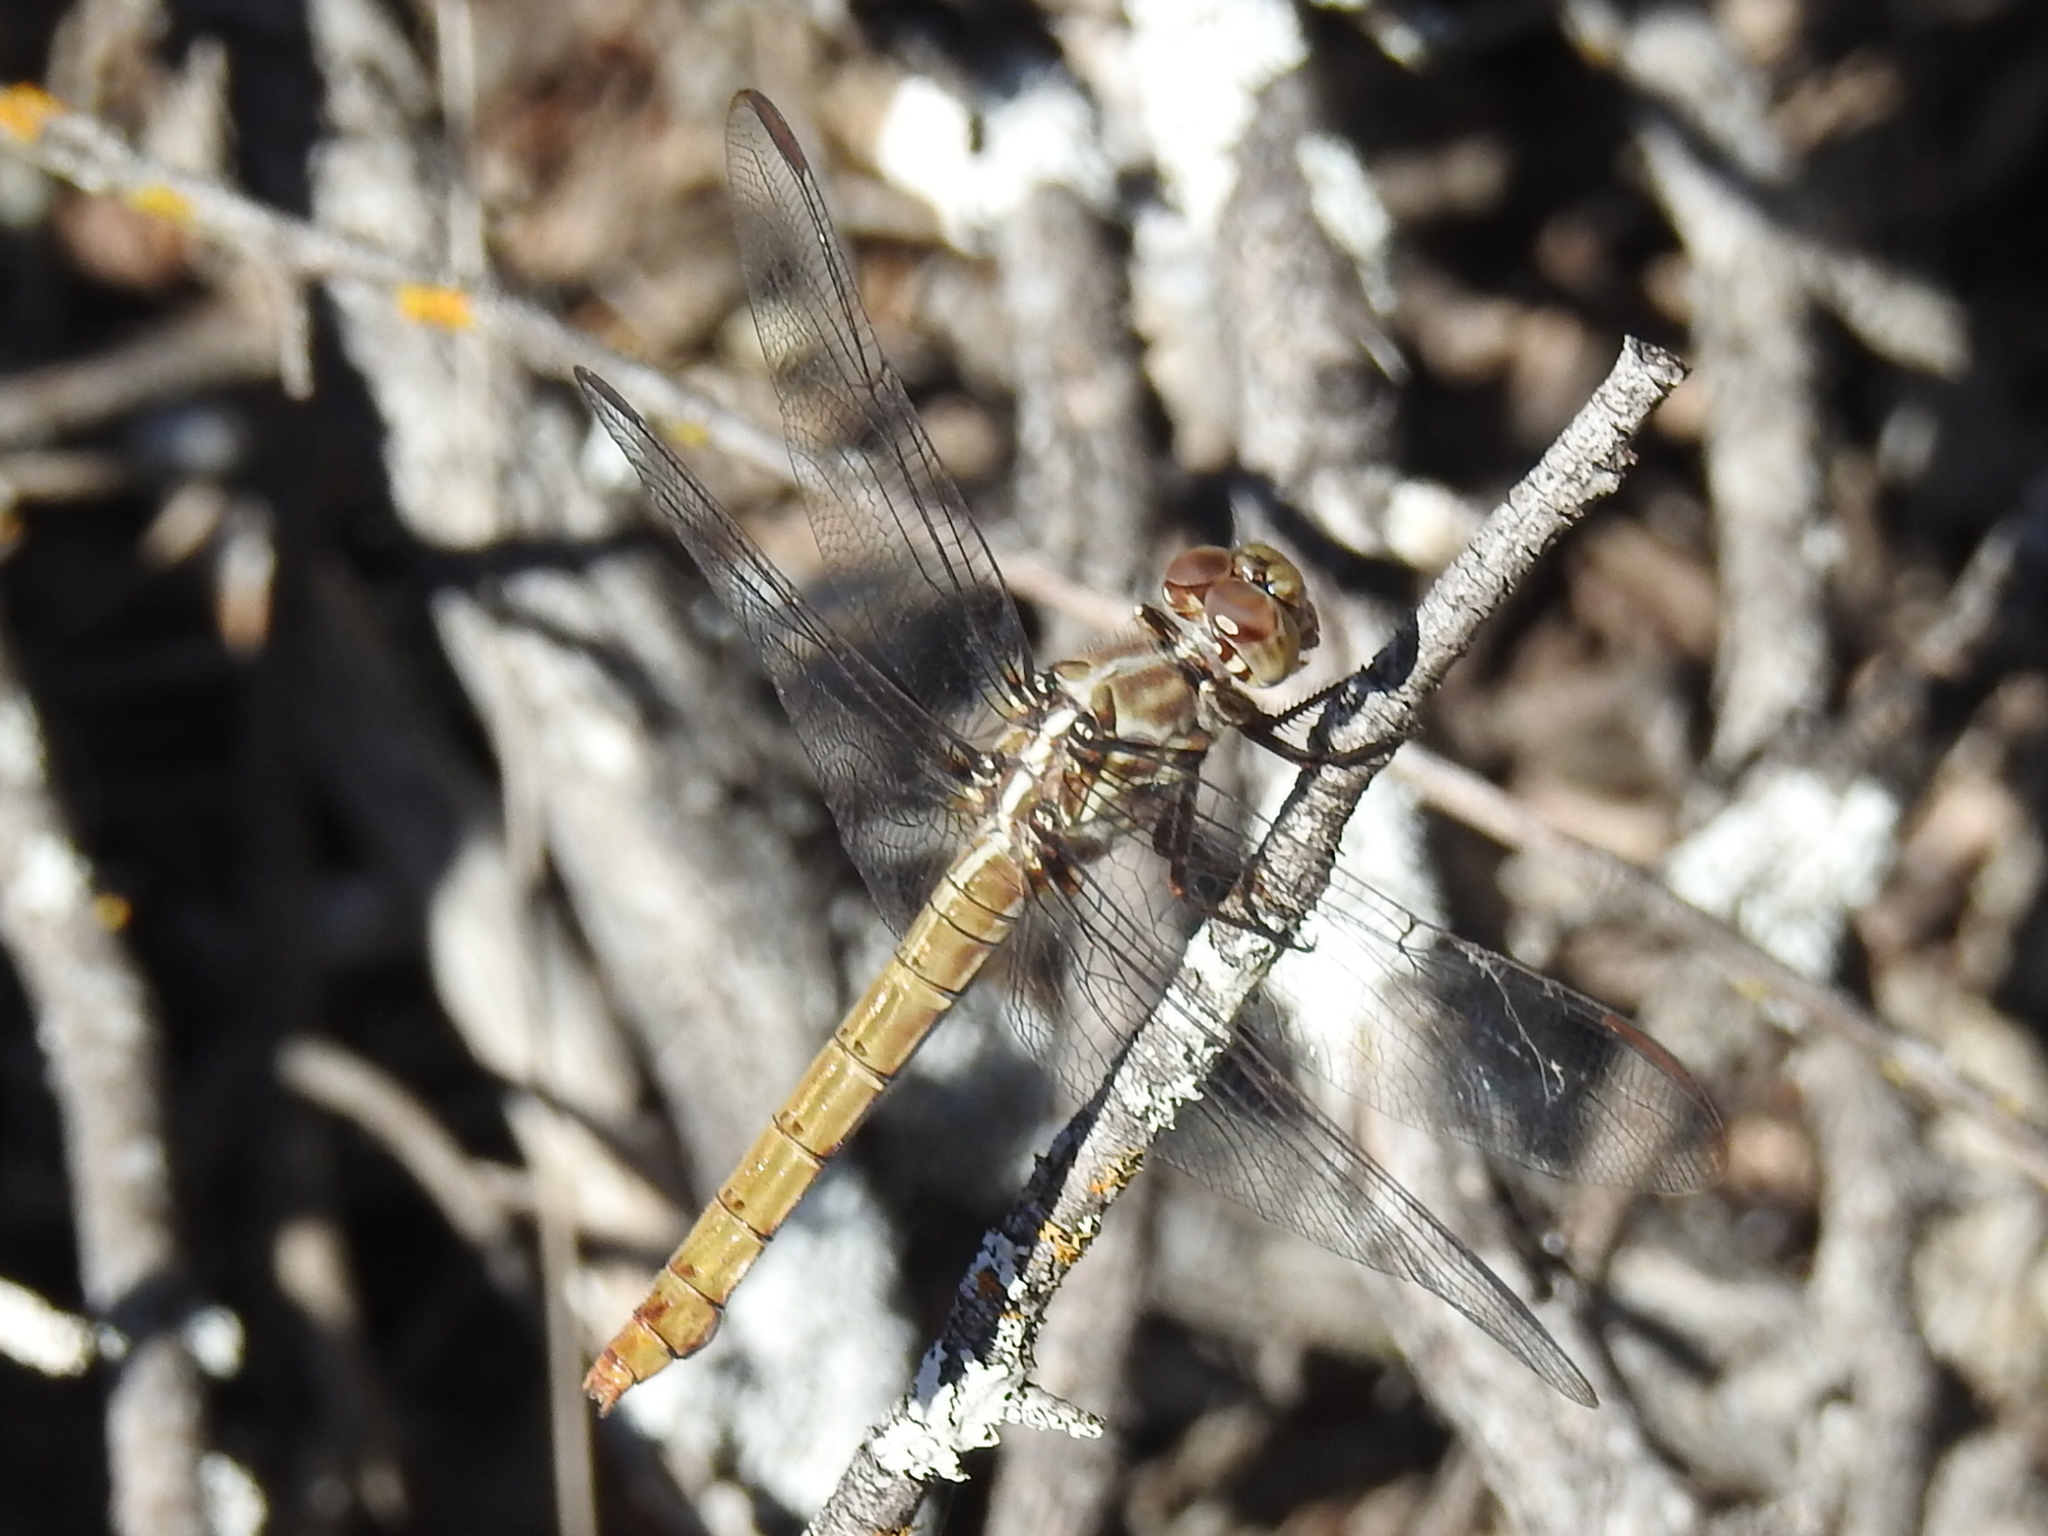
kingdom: Animalia
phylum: Arthropoda
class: Insecta
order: Odonata
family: Libellulidae
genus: Orthemis
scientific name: Orthemis ferruginea
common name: Roseate skimmer
